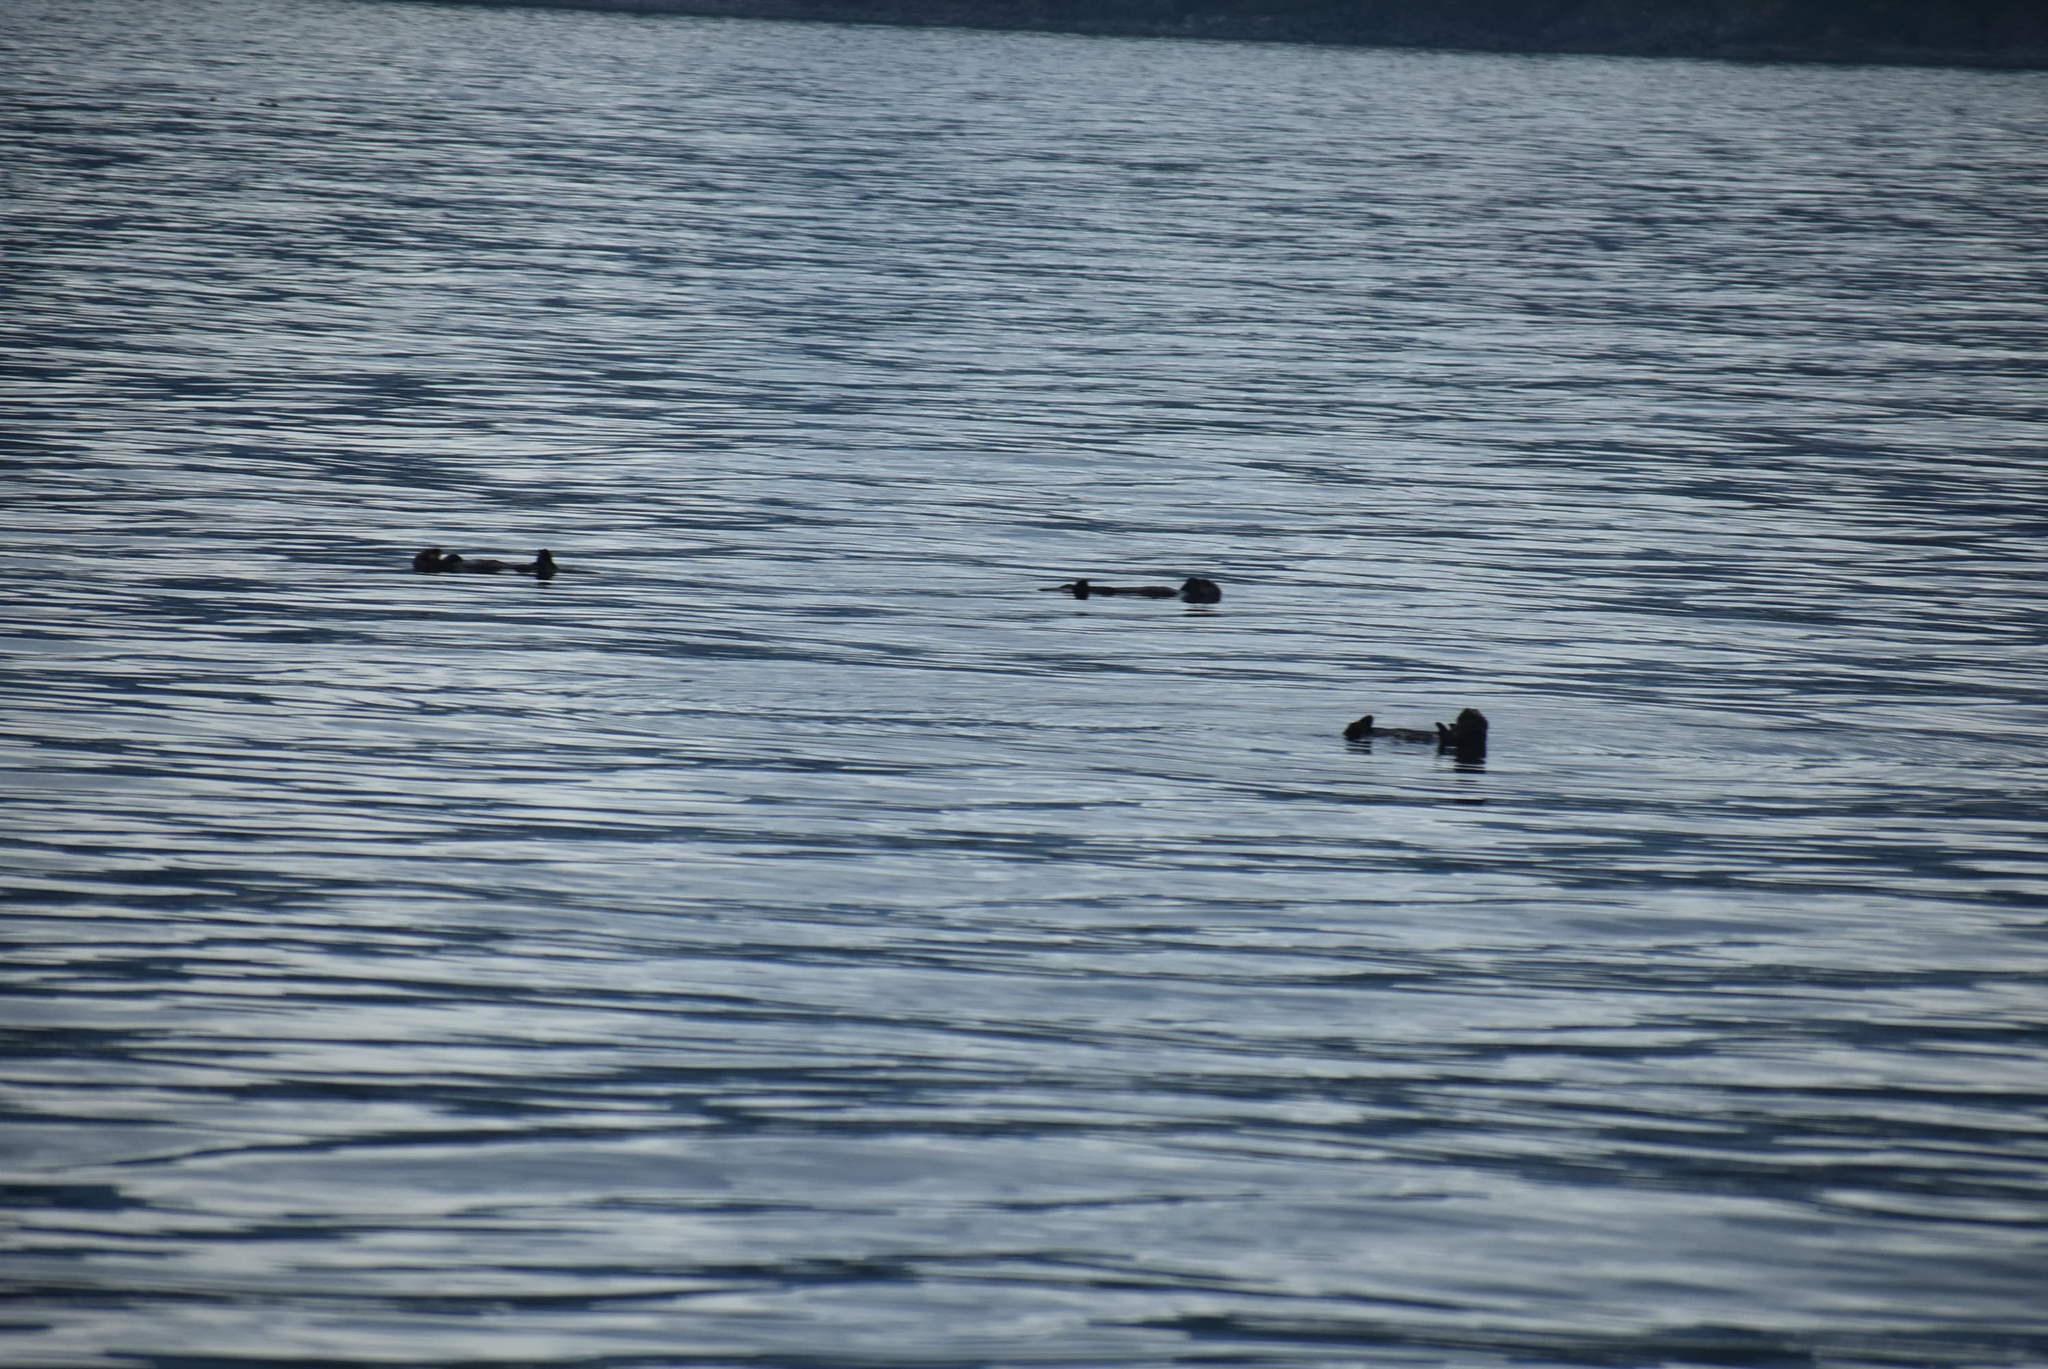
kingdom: Animalia
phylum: Chordata
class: Mammalia
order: Carnivora
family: Mustelidae
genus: Enhydra
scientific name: Enhydra lutris
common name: Sea otter
